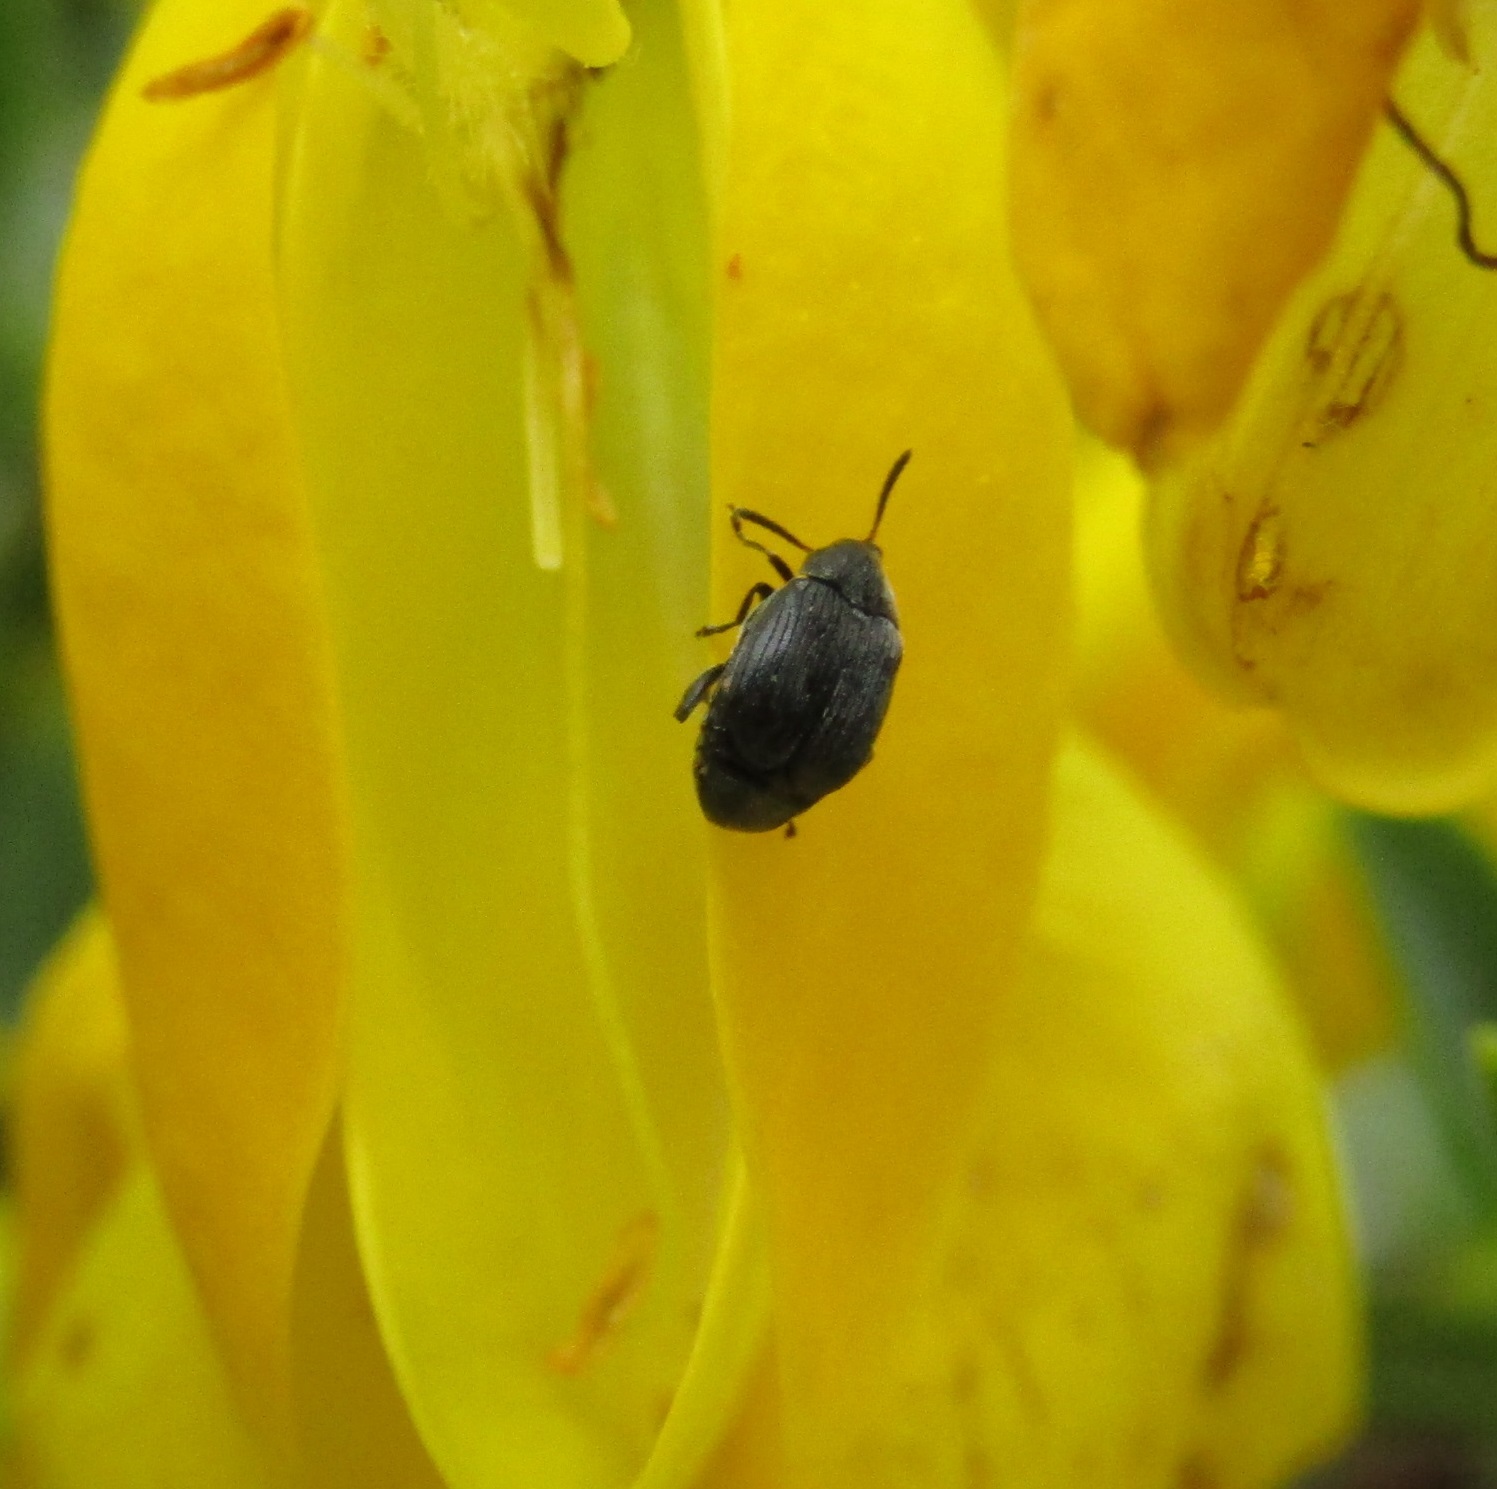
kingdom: Animalia
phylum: Arthropoda
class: Insecta
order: Coleoptera
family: Chrysomelidae
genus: Bruchidius
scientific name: Bruchidius villosus
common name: Scotch broom bruchid
